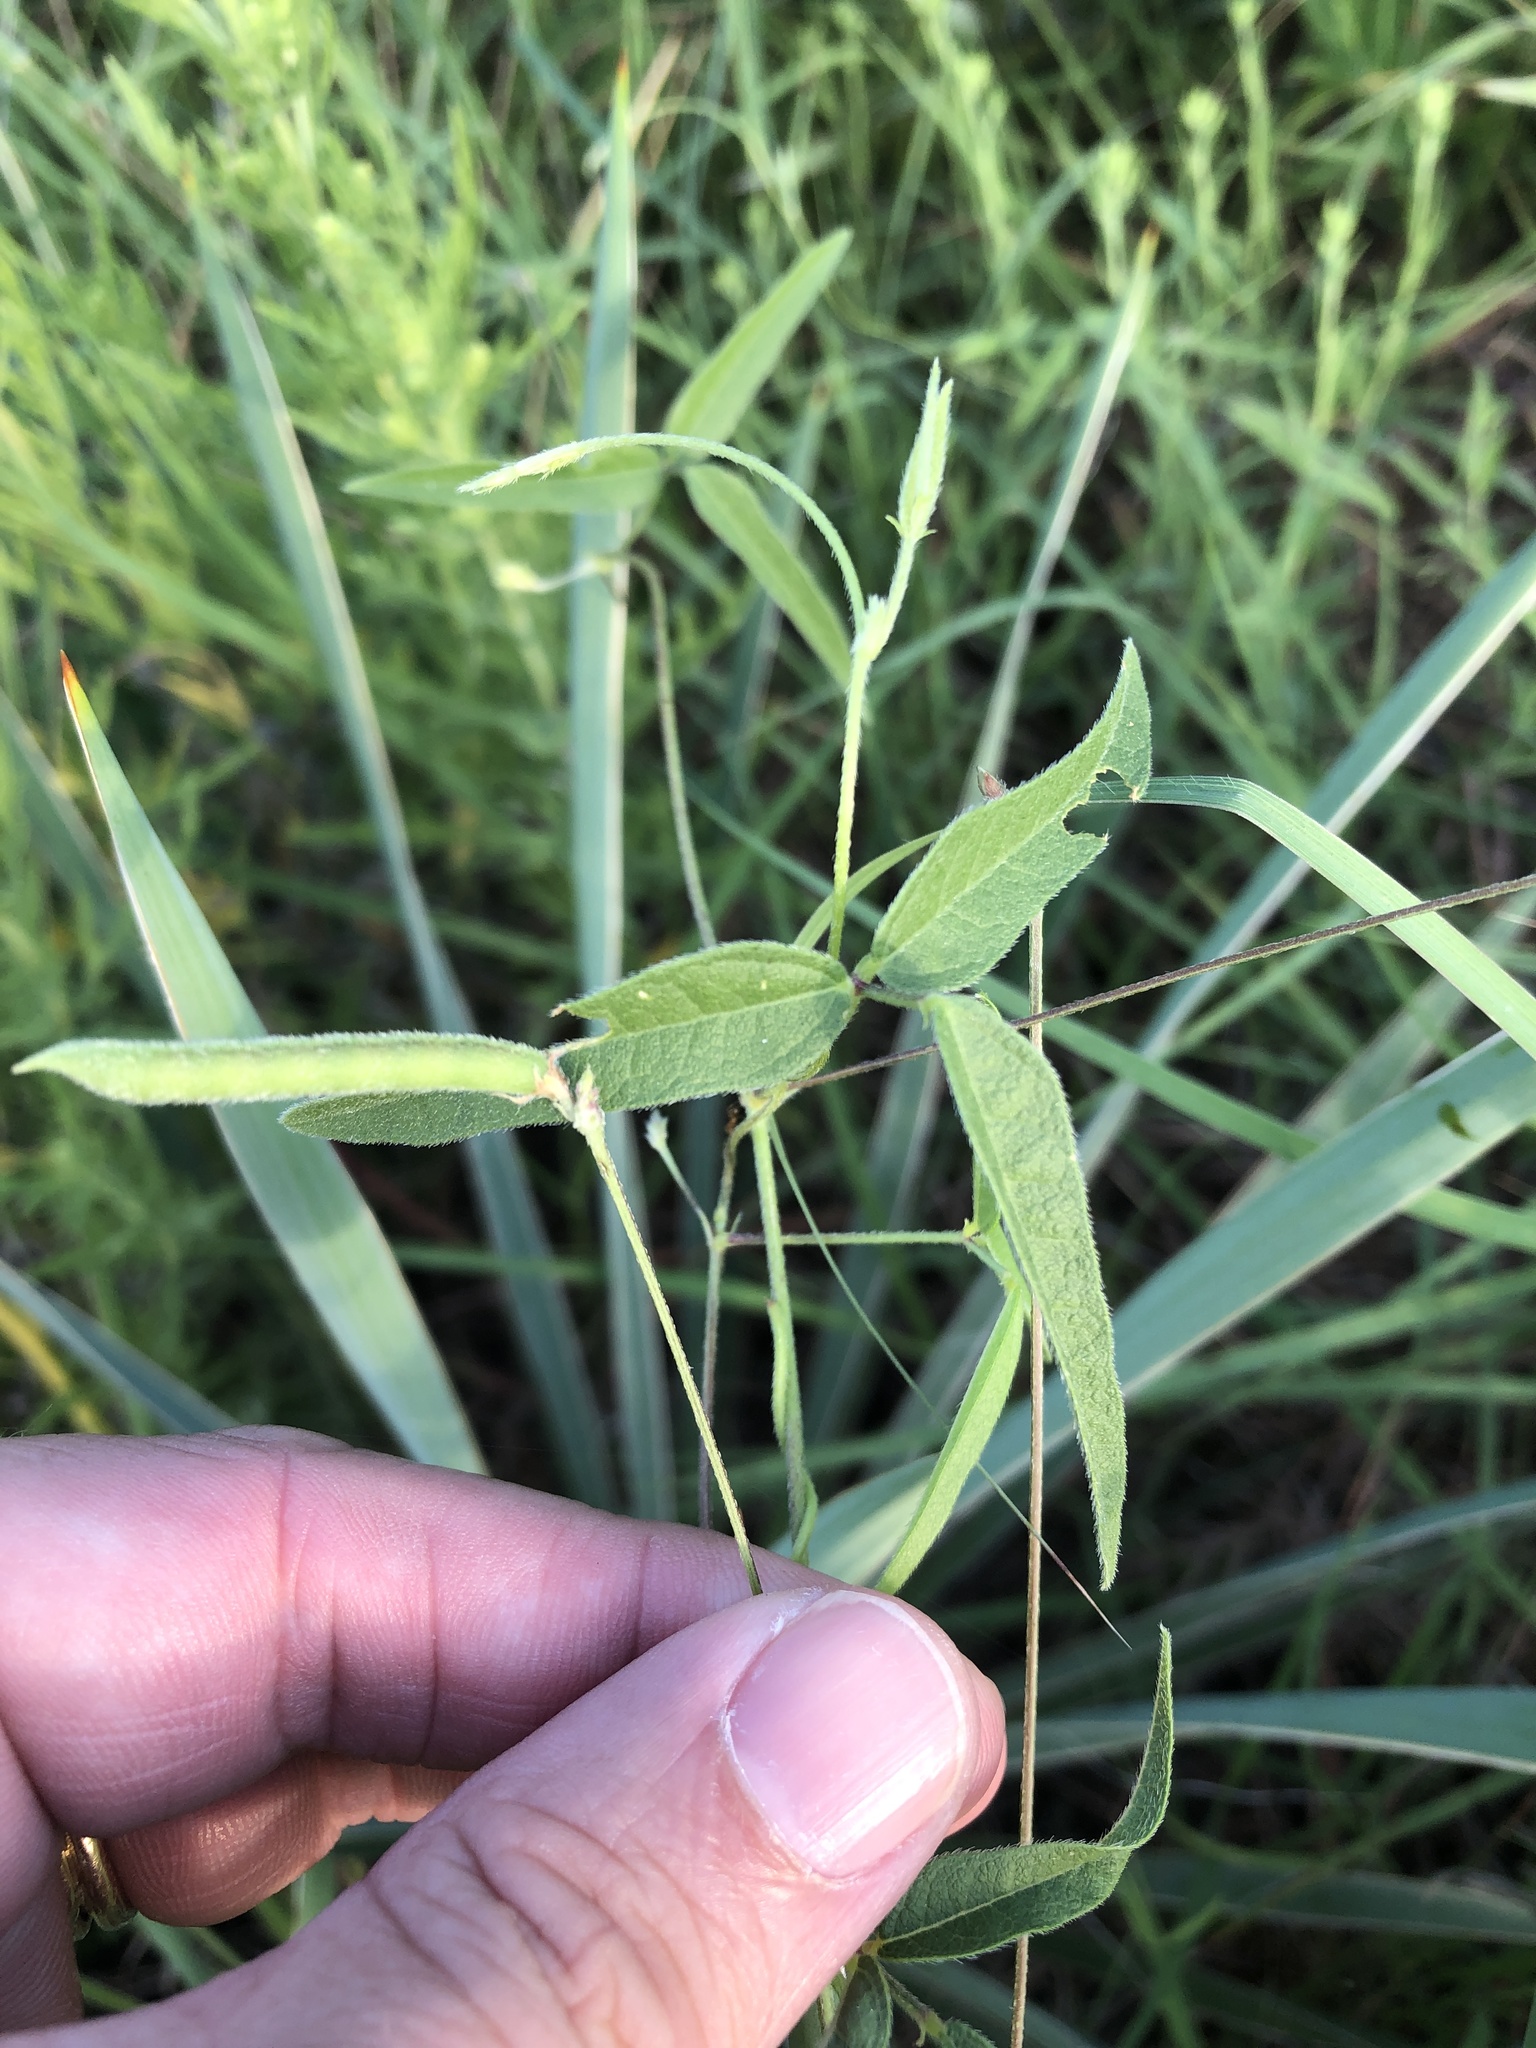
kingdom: Plantae
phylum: Tracheophyta
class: Magnoliopsida
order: Fabales
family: Fabaceae
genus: Strophostyles
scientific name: Strophostyles leiosperma
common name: Smooth-seed wild bean
